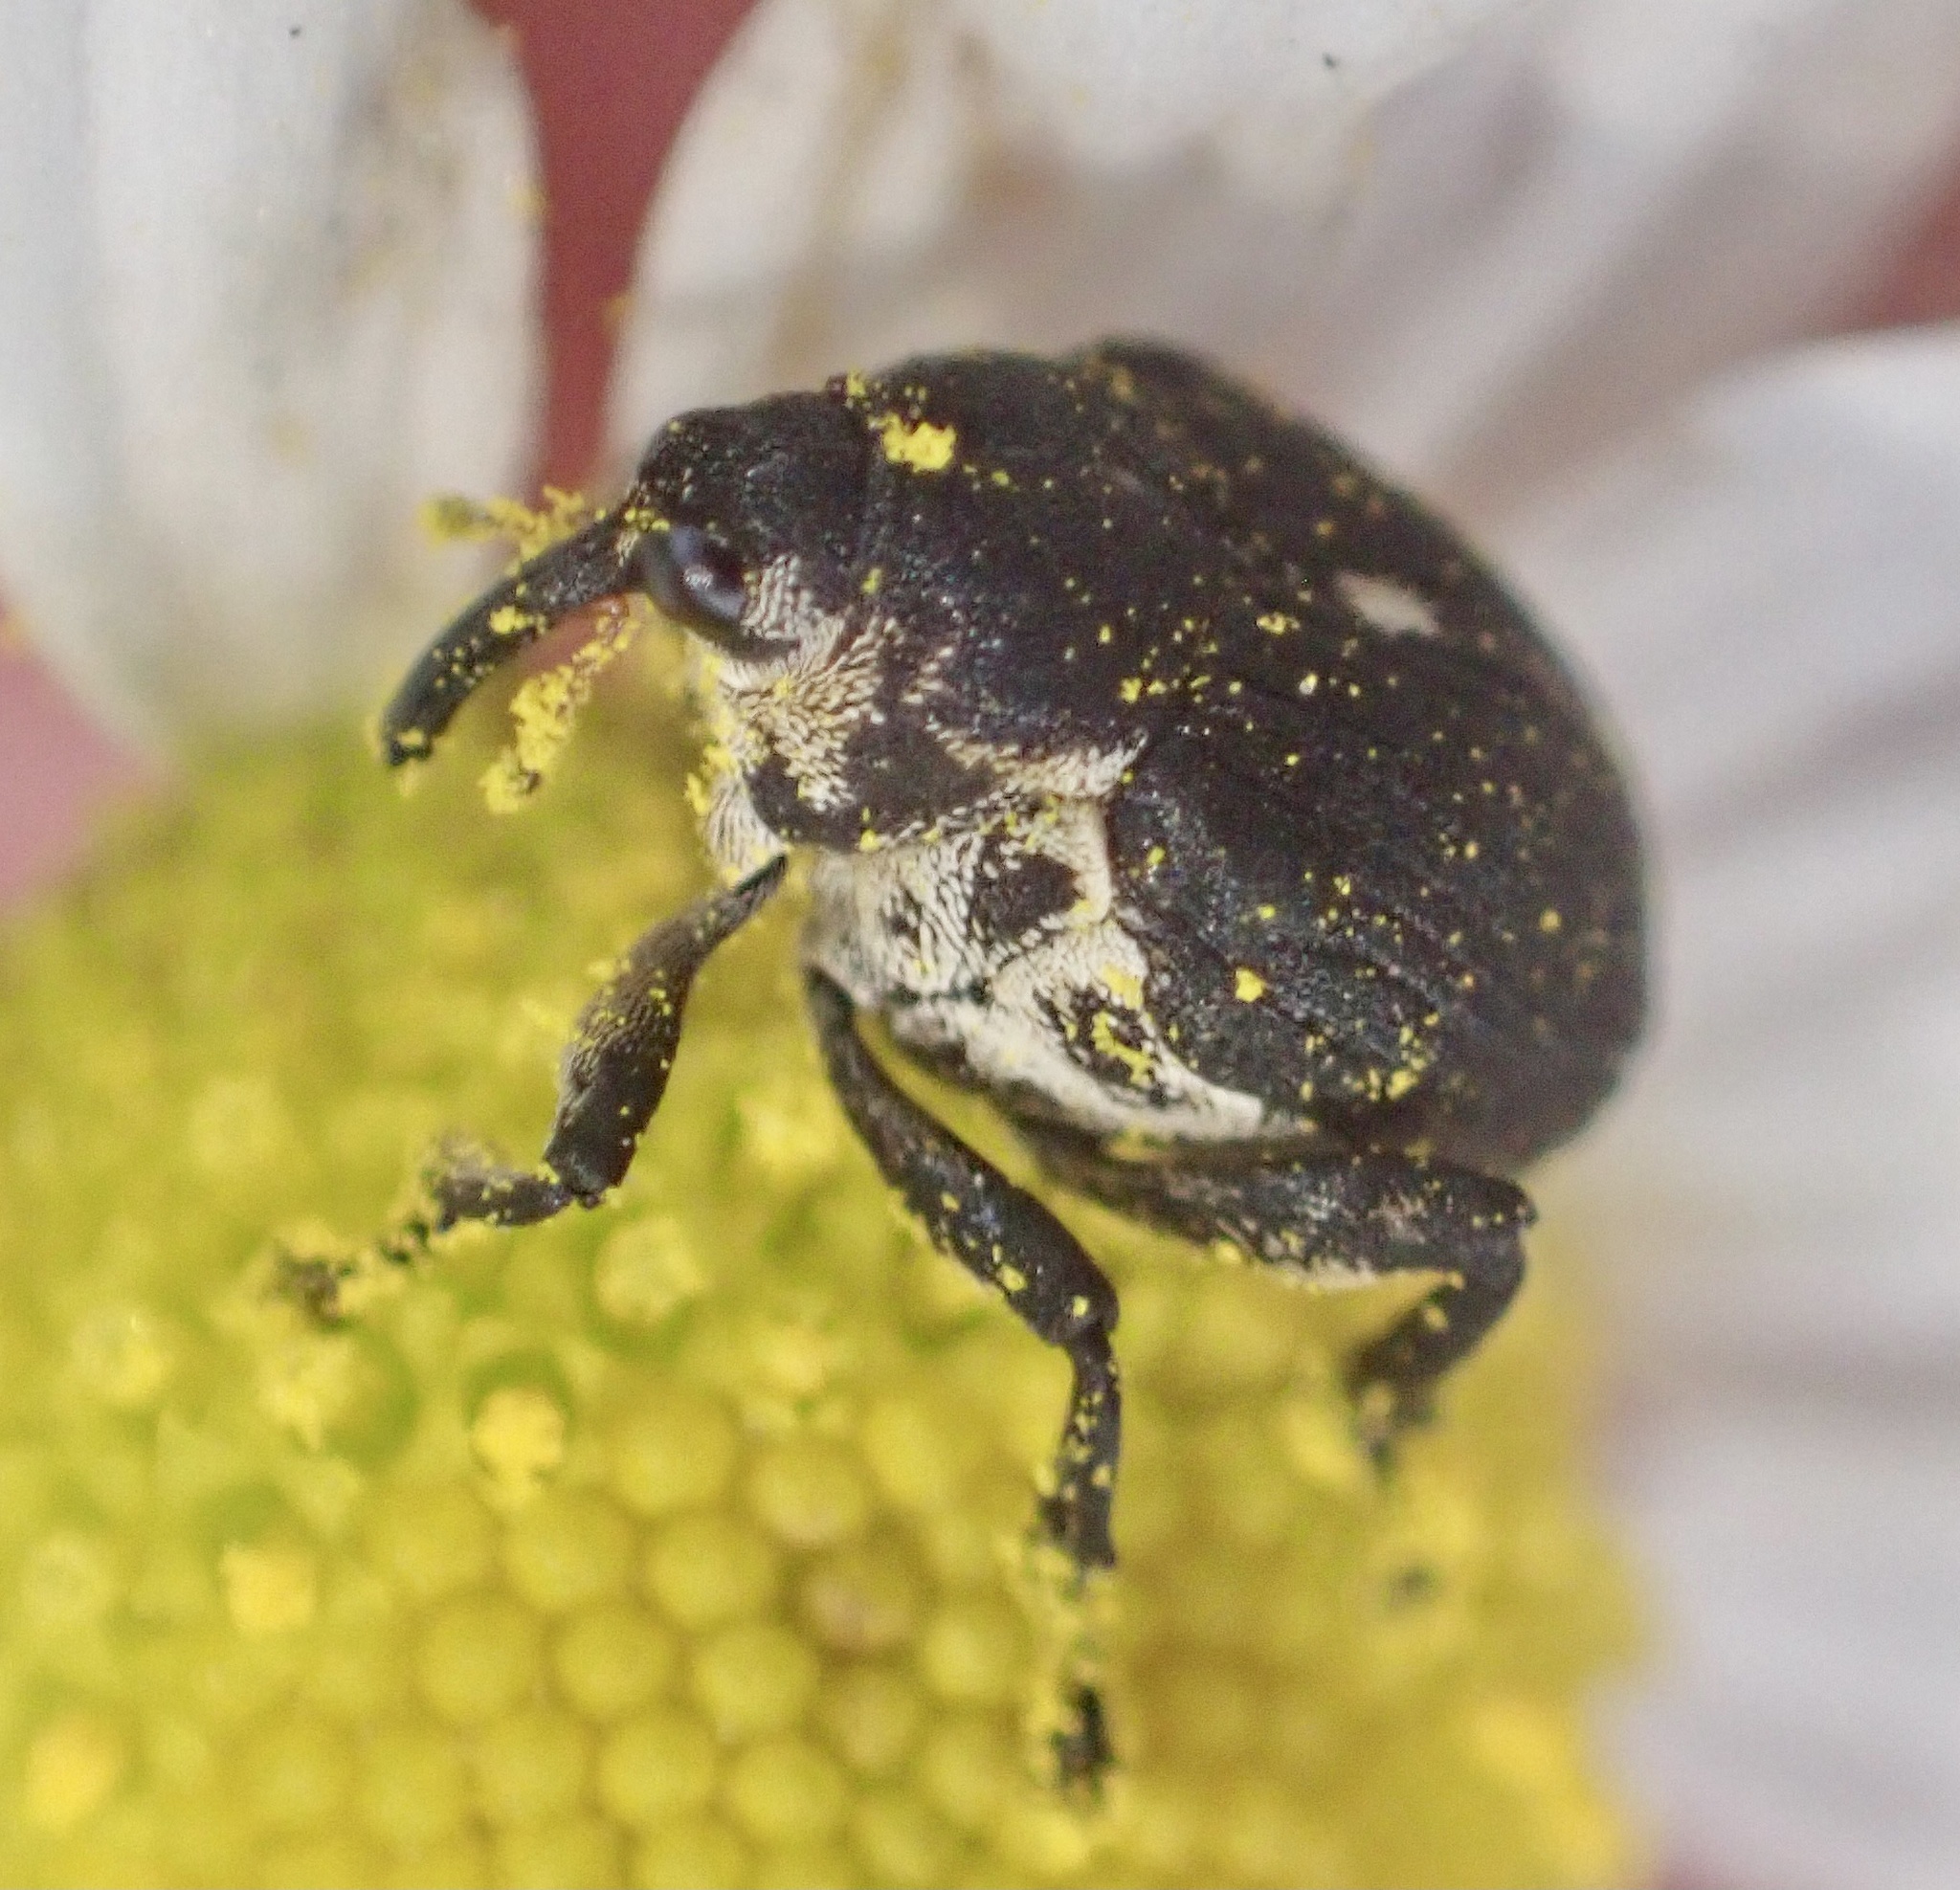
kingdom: Animalia
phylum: Arthropoda
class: Insecta
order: Coleoptera
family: Curculionidae
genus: Mononychus
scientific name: Mononychus punctumalbum
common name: Iris weevil
